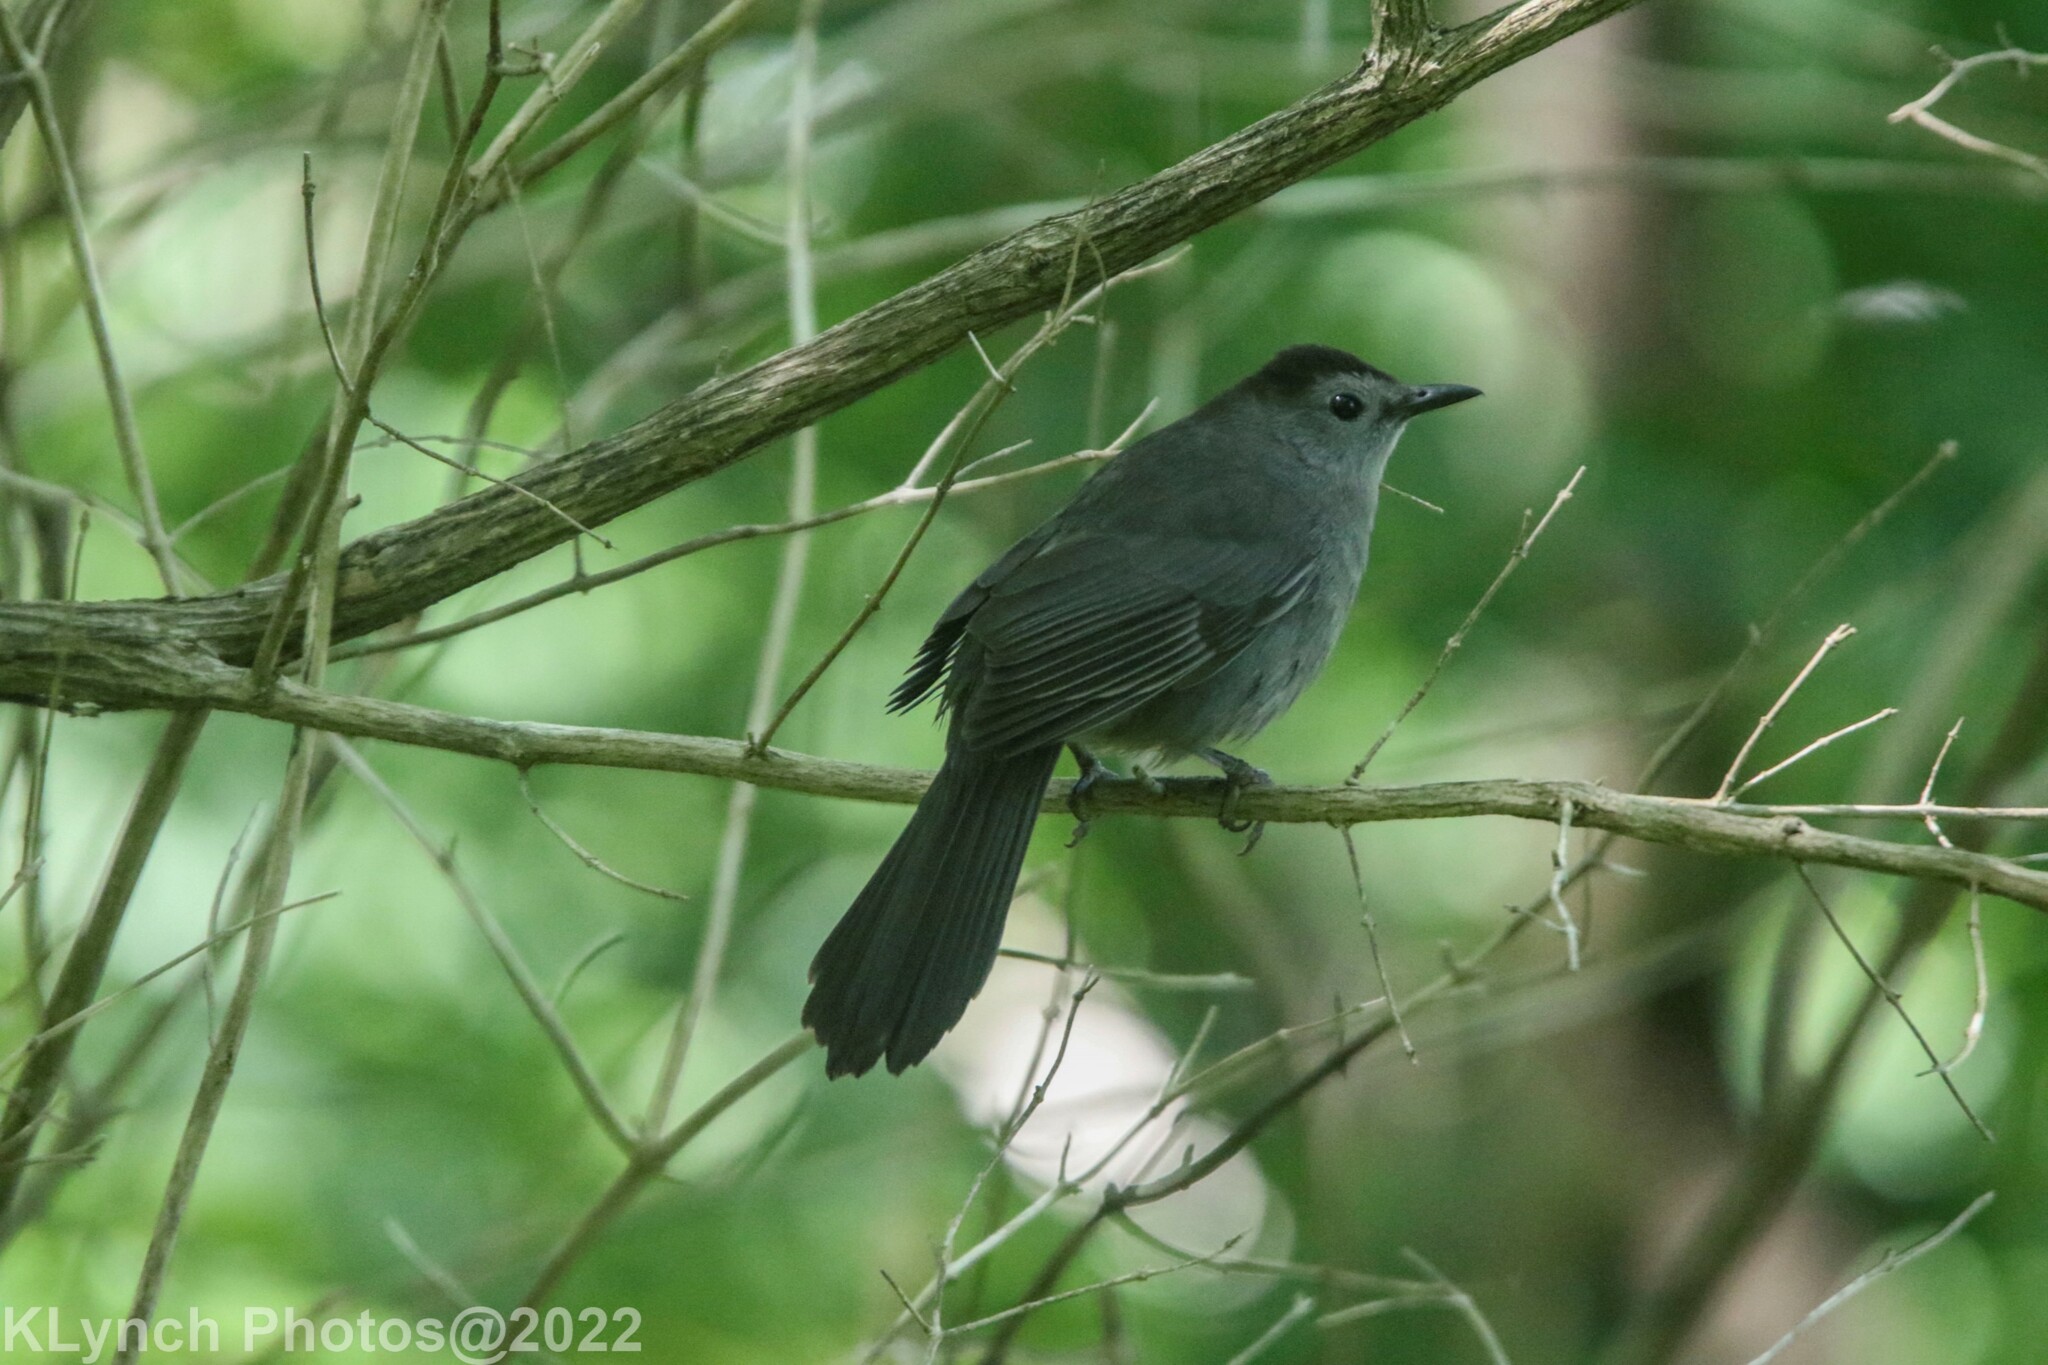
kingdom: Animalia
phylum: Chordata
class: Aves
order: Passeriformes
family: Mimidae
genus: Dumetella
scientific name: Dumetella carolinensis
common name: Gray catbird
